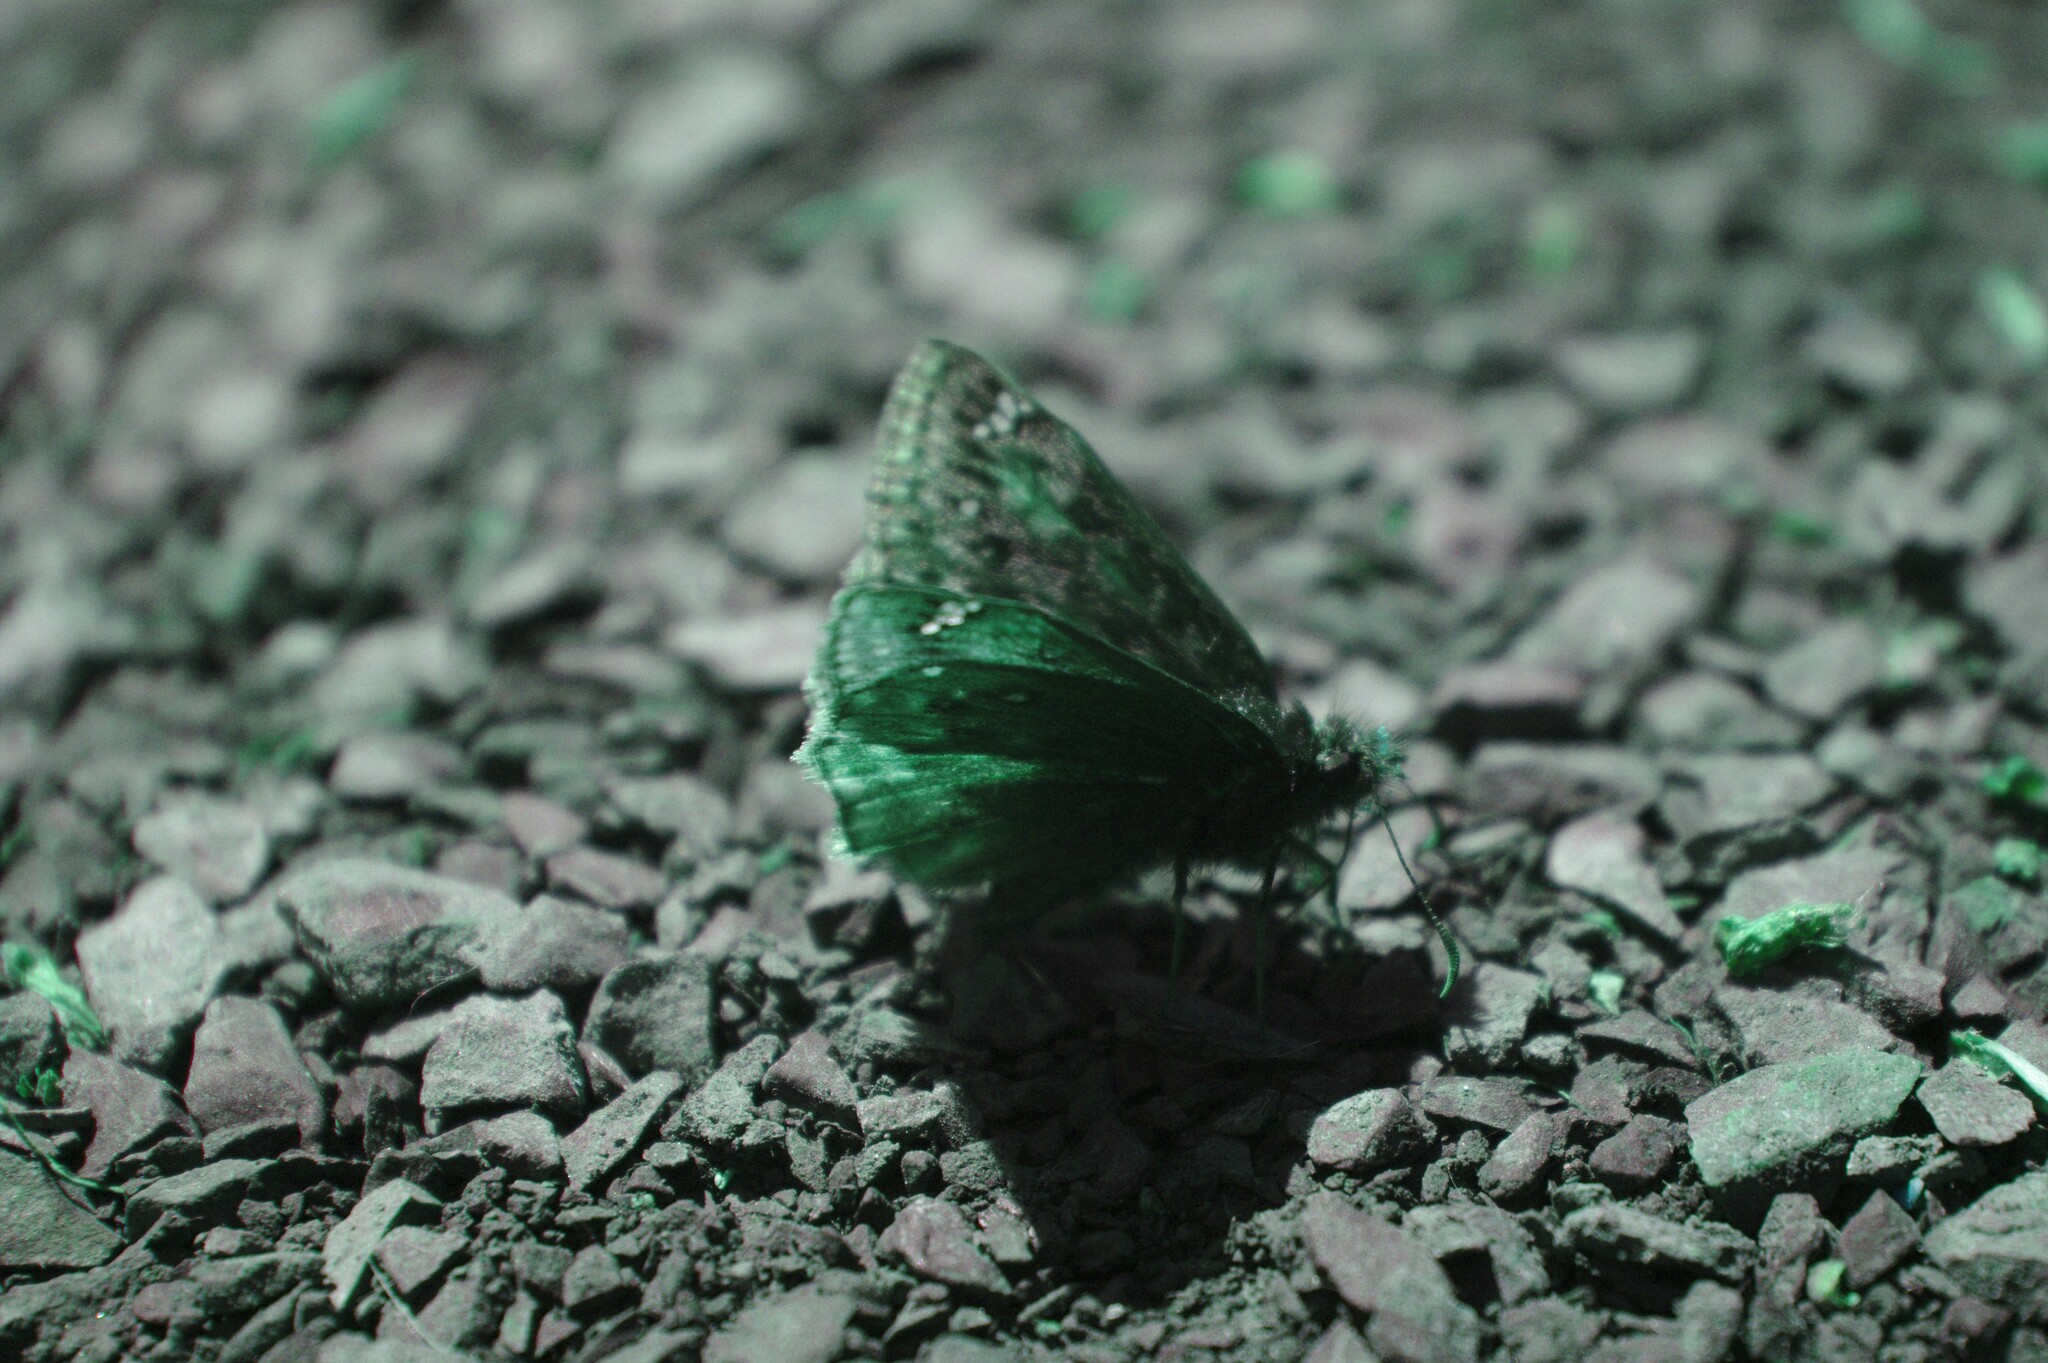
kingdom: Animalia
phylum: Arthropoda
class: Insecta
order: Lepidoptera
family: Hesperiidae
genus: Erynnis
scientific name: Erynnis juvenalis
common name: Juvenal's duskywing
